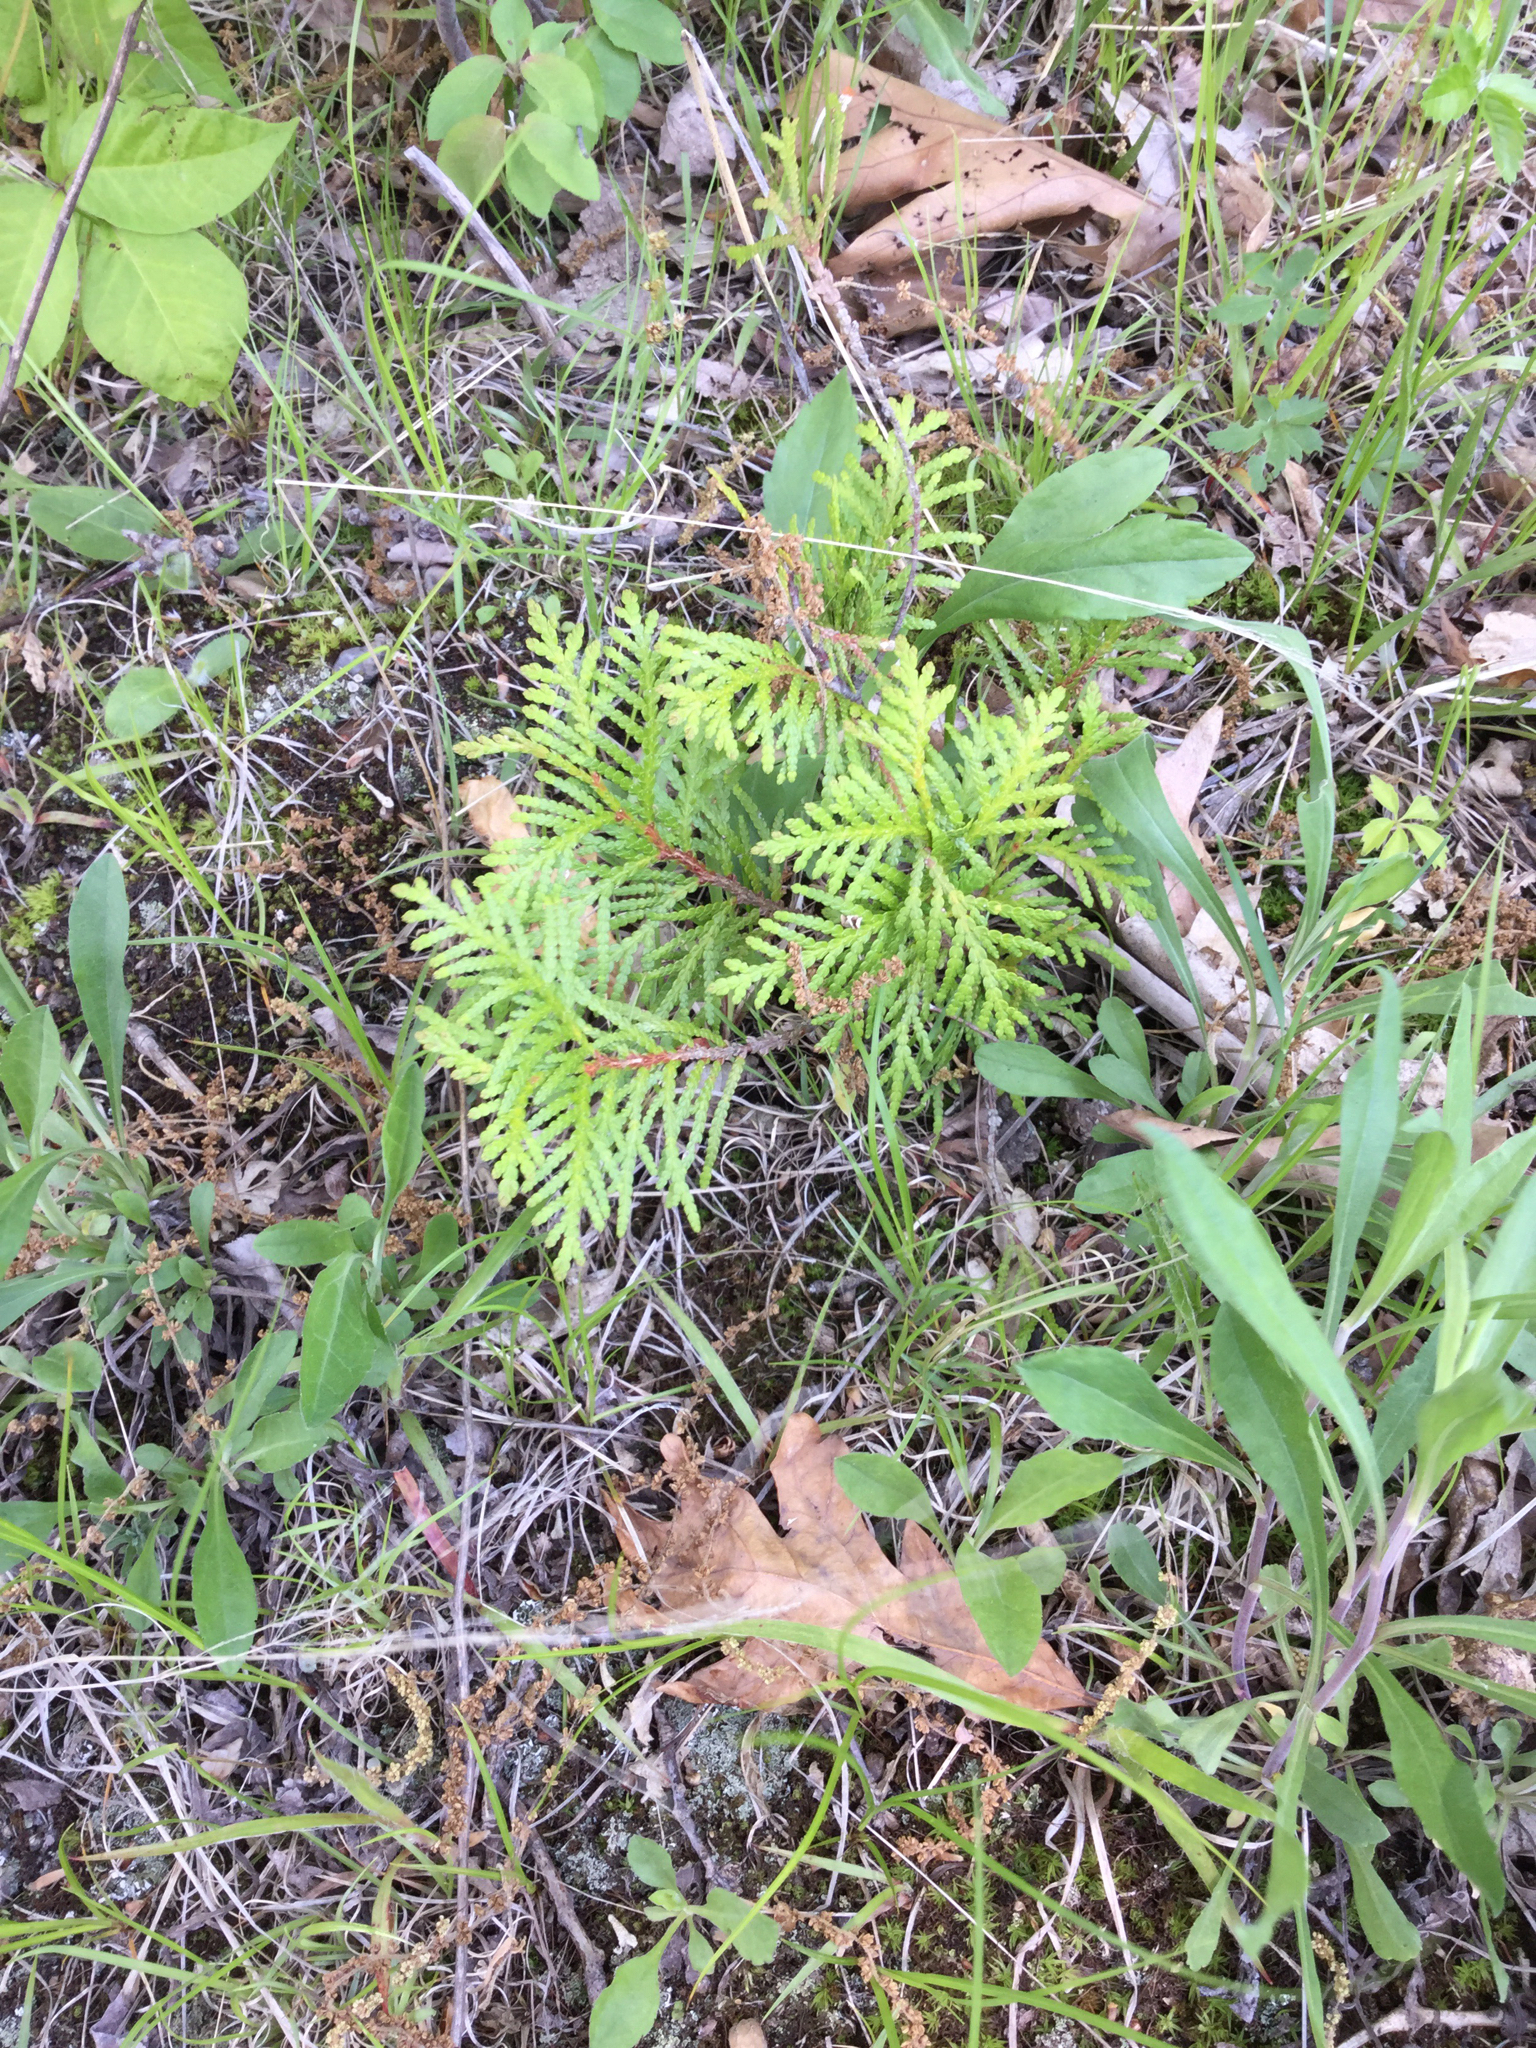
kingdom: Plantae
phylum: Tracheophyta
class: Pinopsida
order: Pinales
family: Cupressaceae
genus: Thuja
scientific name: Thuja occidentalis
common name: Northern white-cedar
